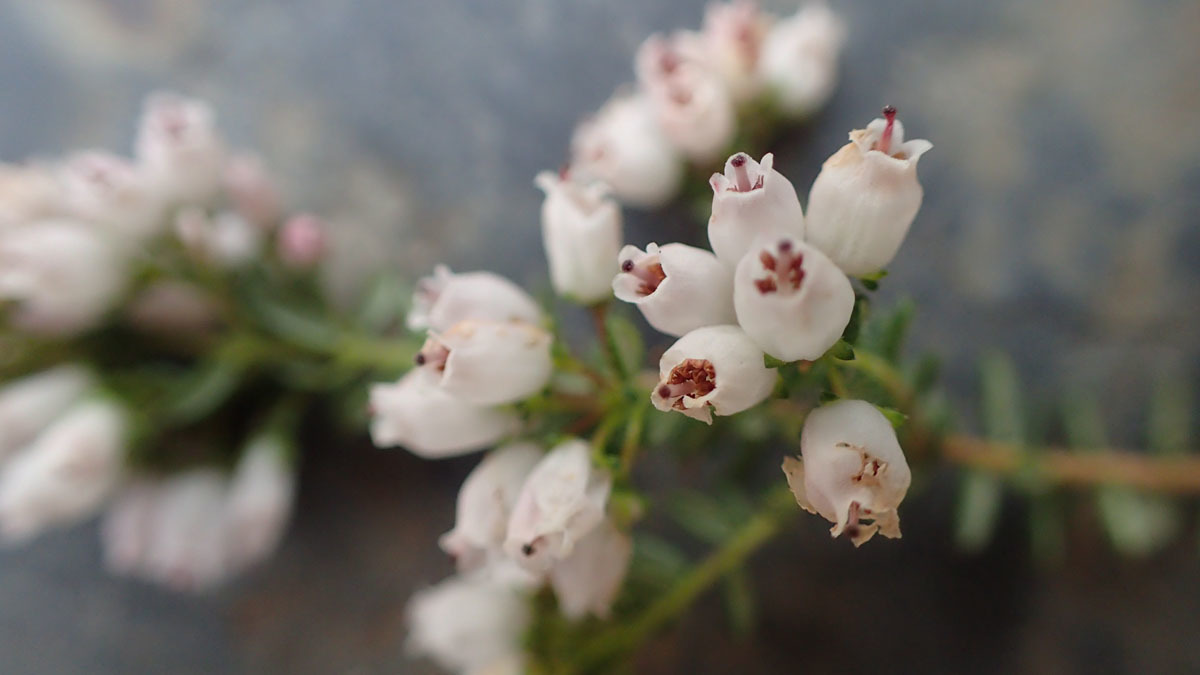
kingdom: Plantae
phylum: Tracheophyta
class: Magnoliopsida
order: Ericales
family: Ericaceae
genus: Erica
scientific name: Erica scabriuscula
